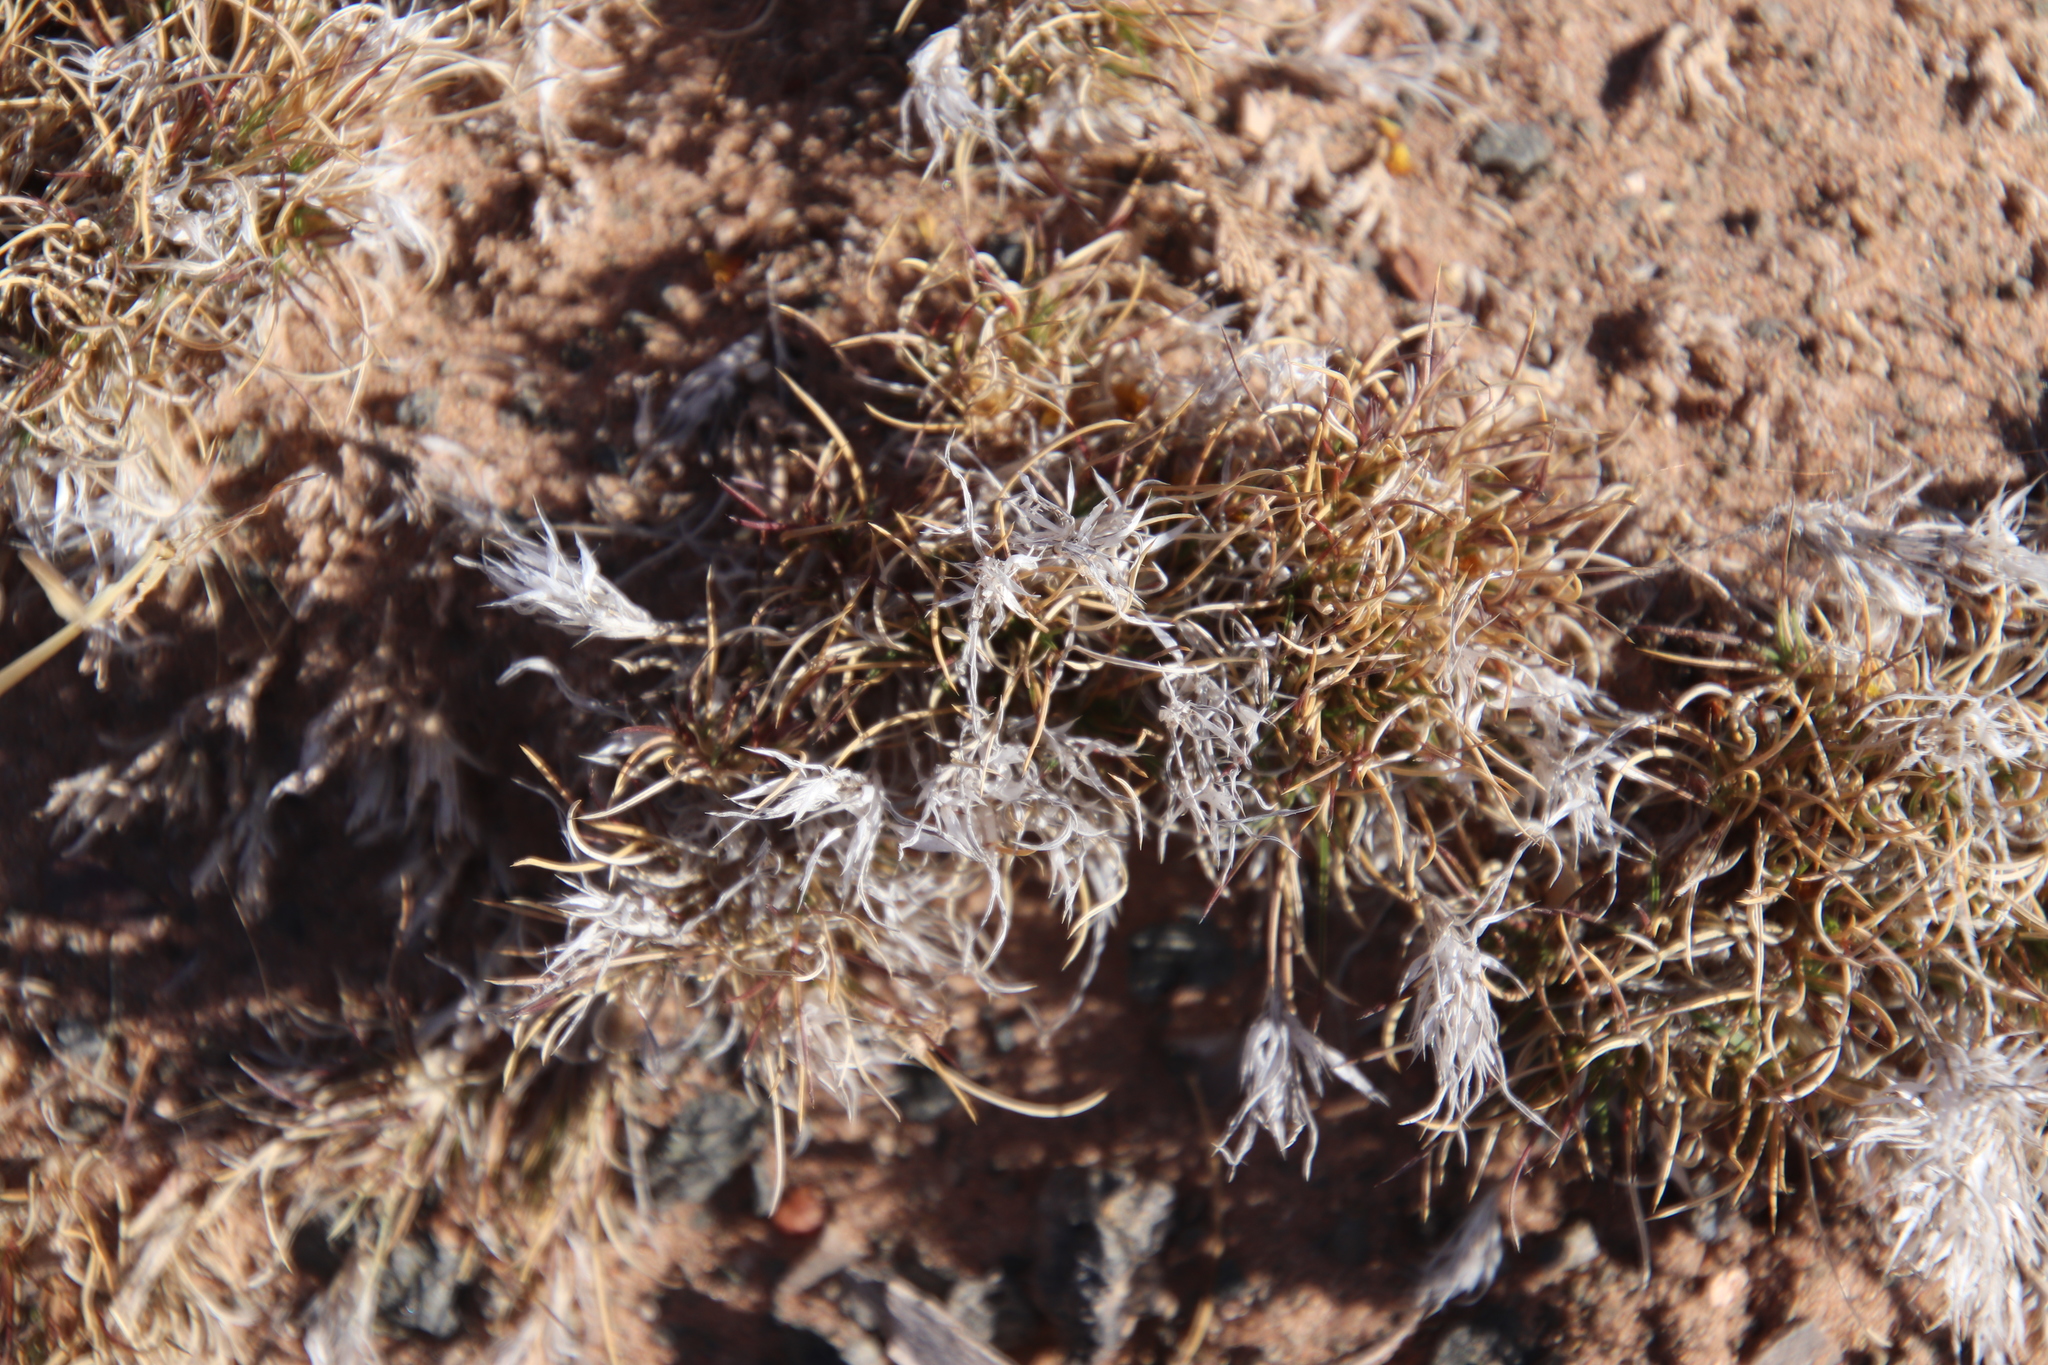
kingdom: Plantae
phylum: Tracheophyta
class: Liliopsida
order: Poales
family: Poaceae
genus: Dasyochloa
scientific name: Dasyochloa pulchella
